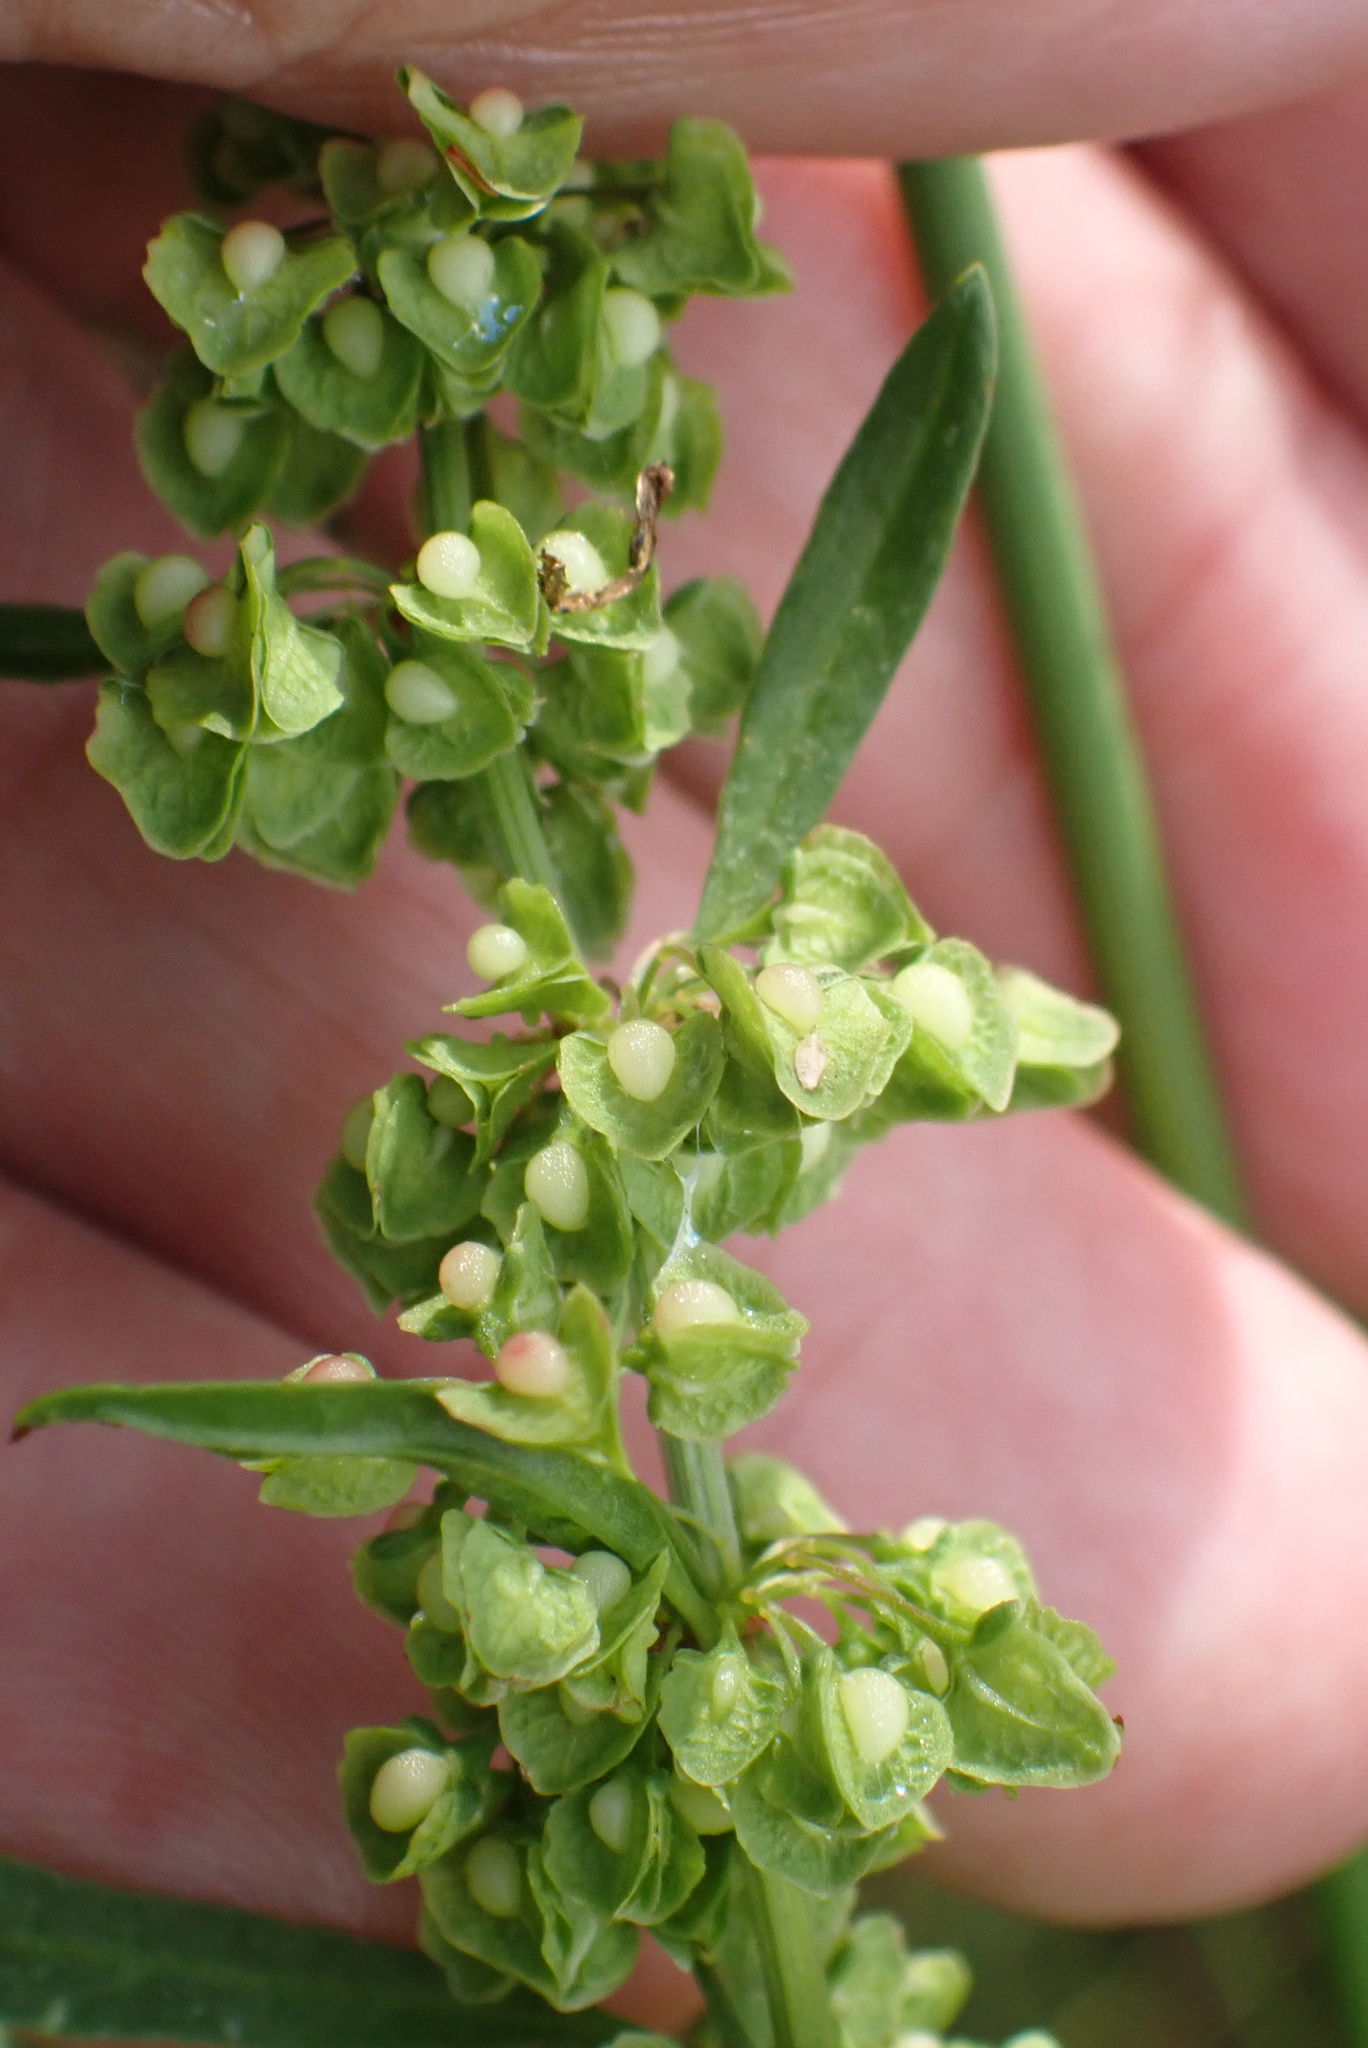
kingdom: Plantae
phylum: Tracheophyta
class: Magnoliopsida
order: Caryophyllales
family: Polygonaceae
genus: Rumex
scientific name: Rumex crispus
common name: Curled dock
